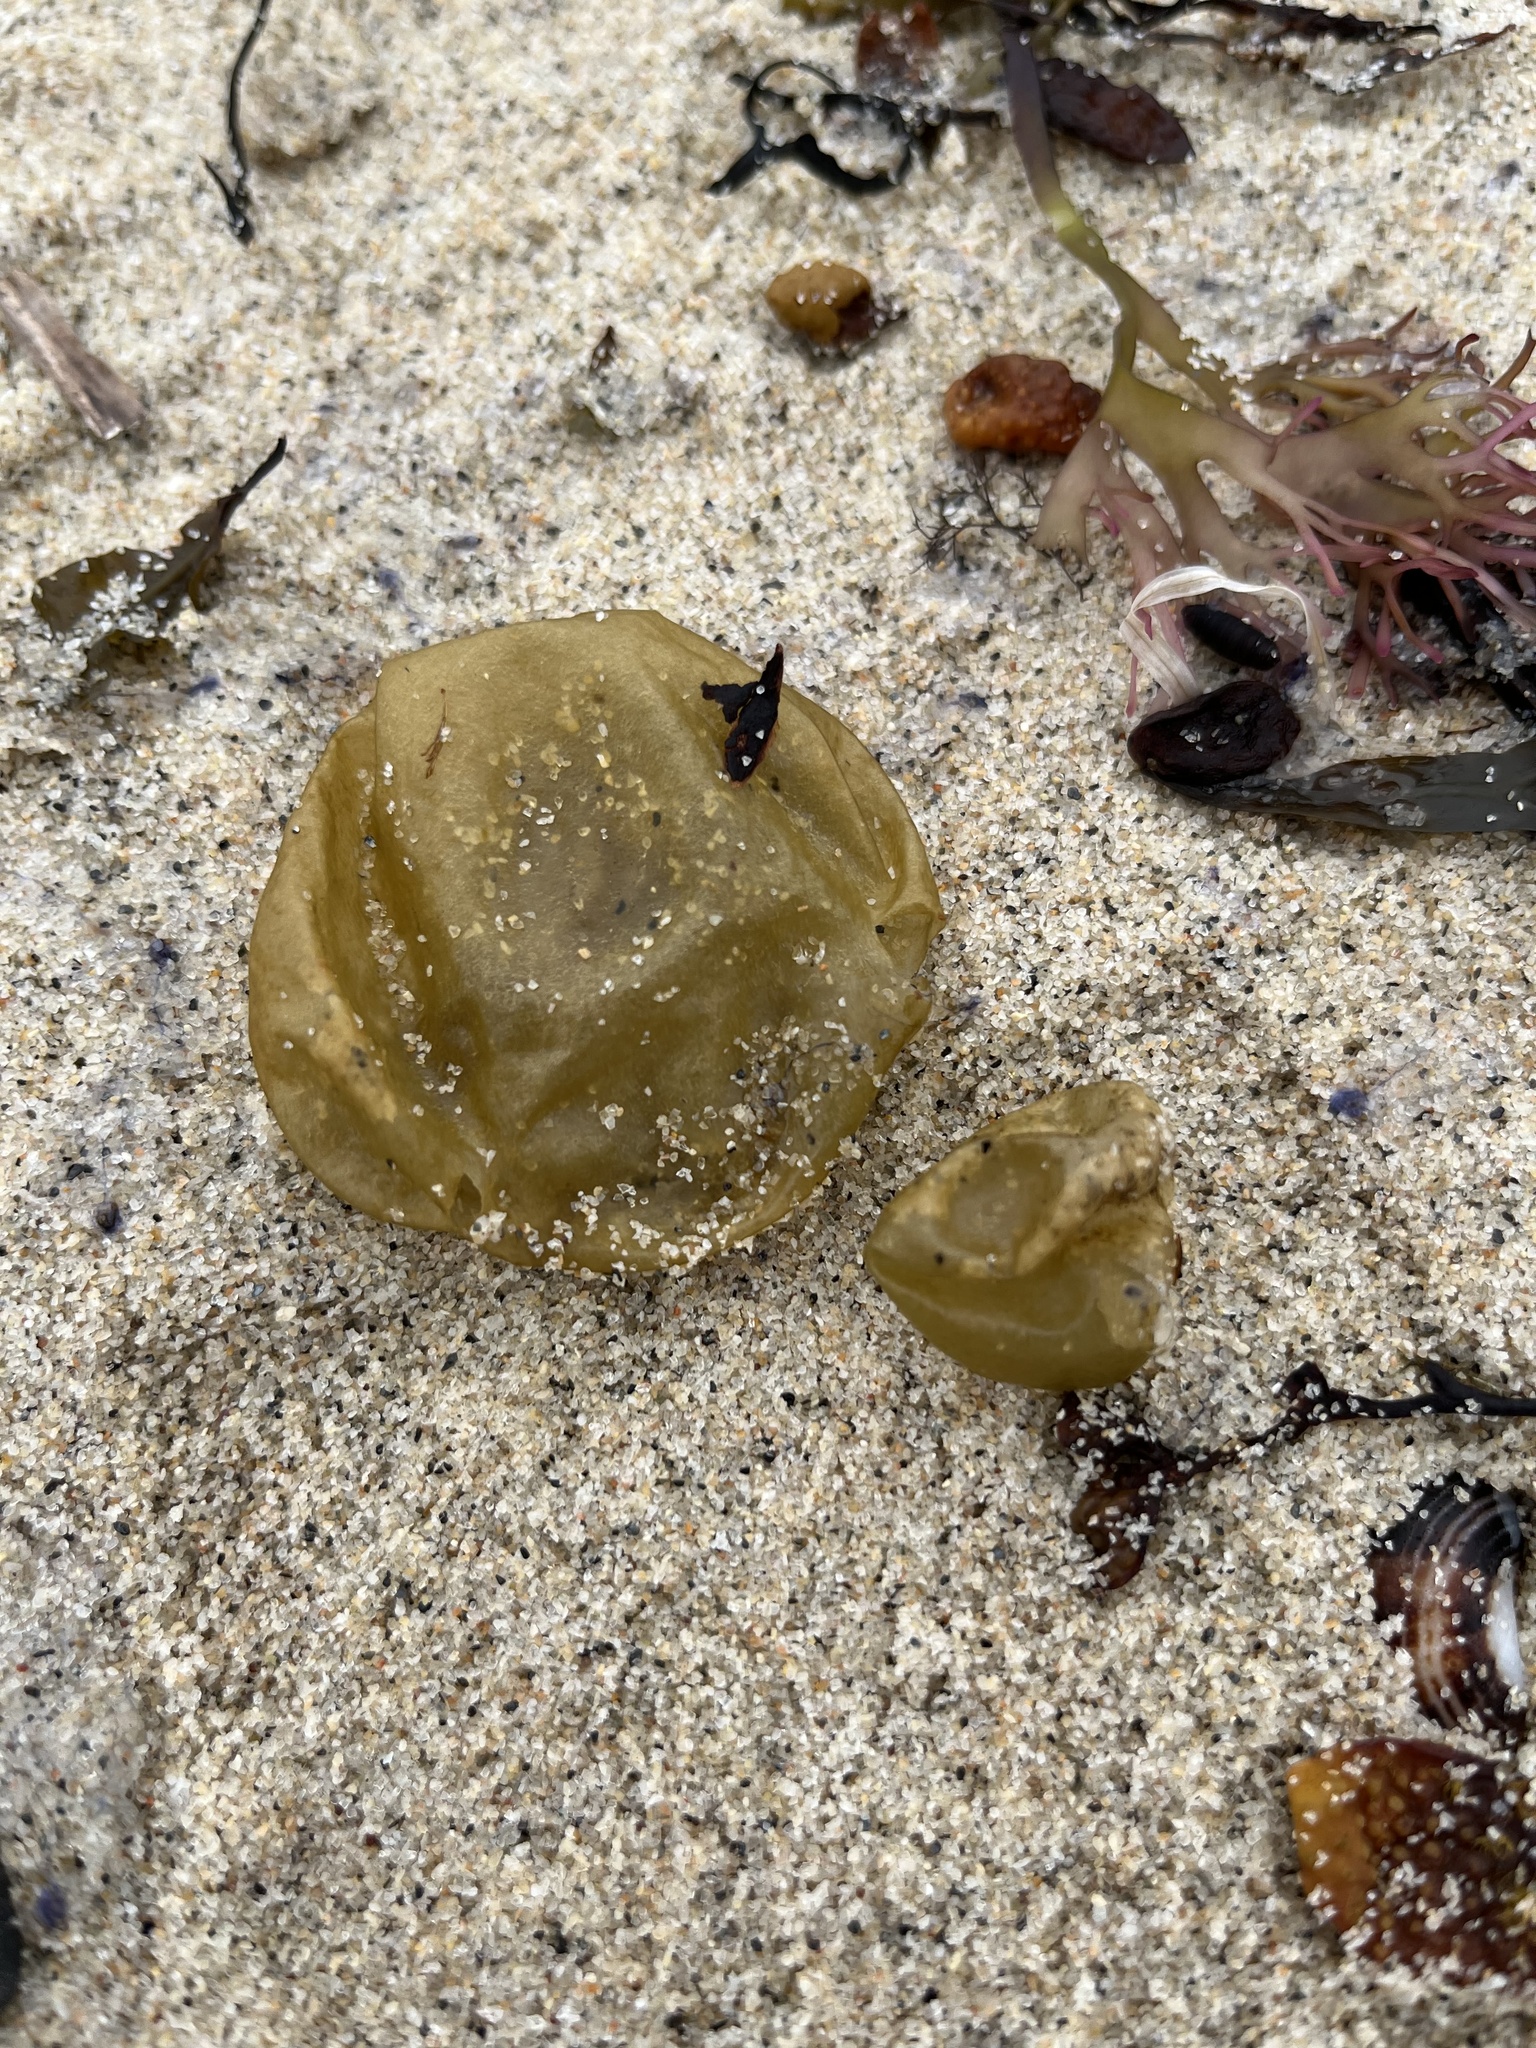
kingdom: Chromista
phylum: Ochrophyta
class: Phaeophyceae
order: Scytosiphonales
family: Scytosiphonaceae
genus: Colpomenia
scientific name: Colpomenia peregrina
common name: Oyster thief
